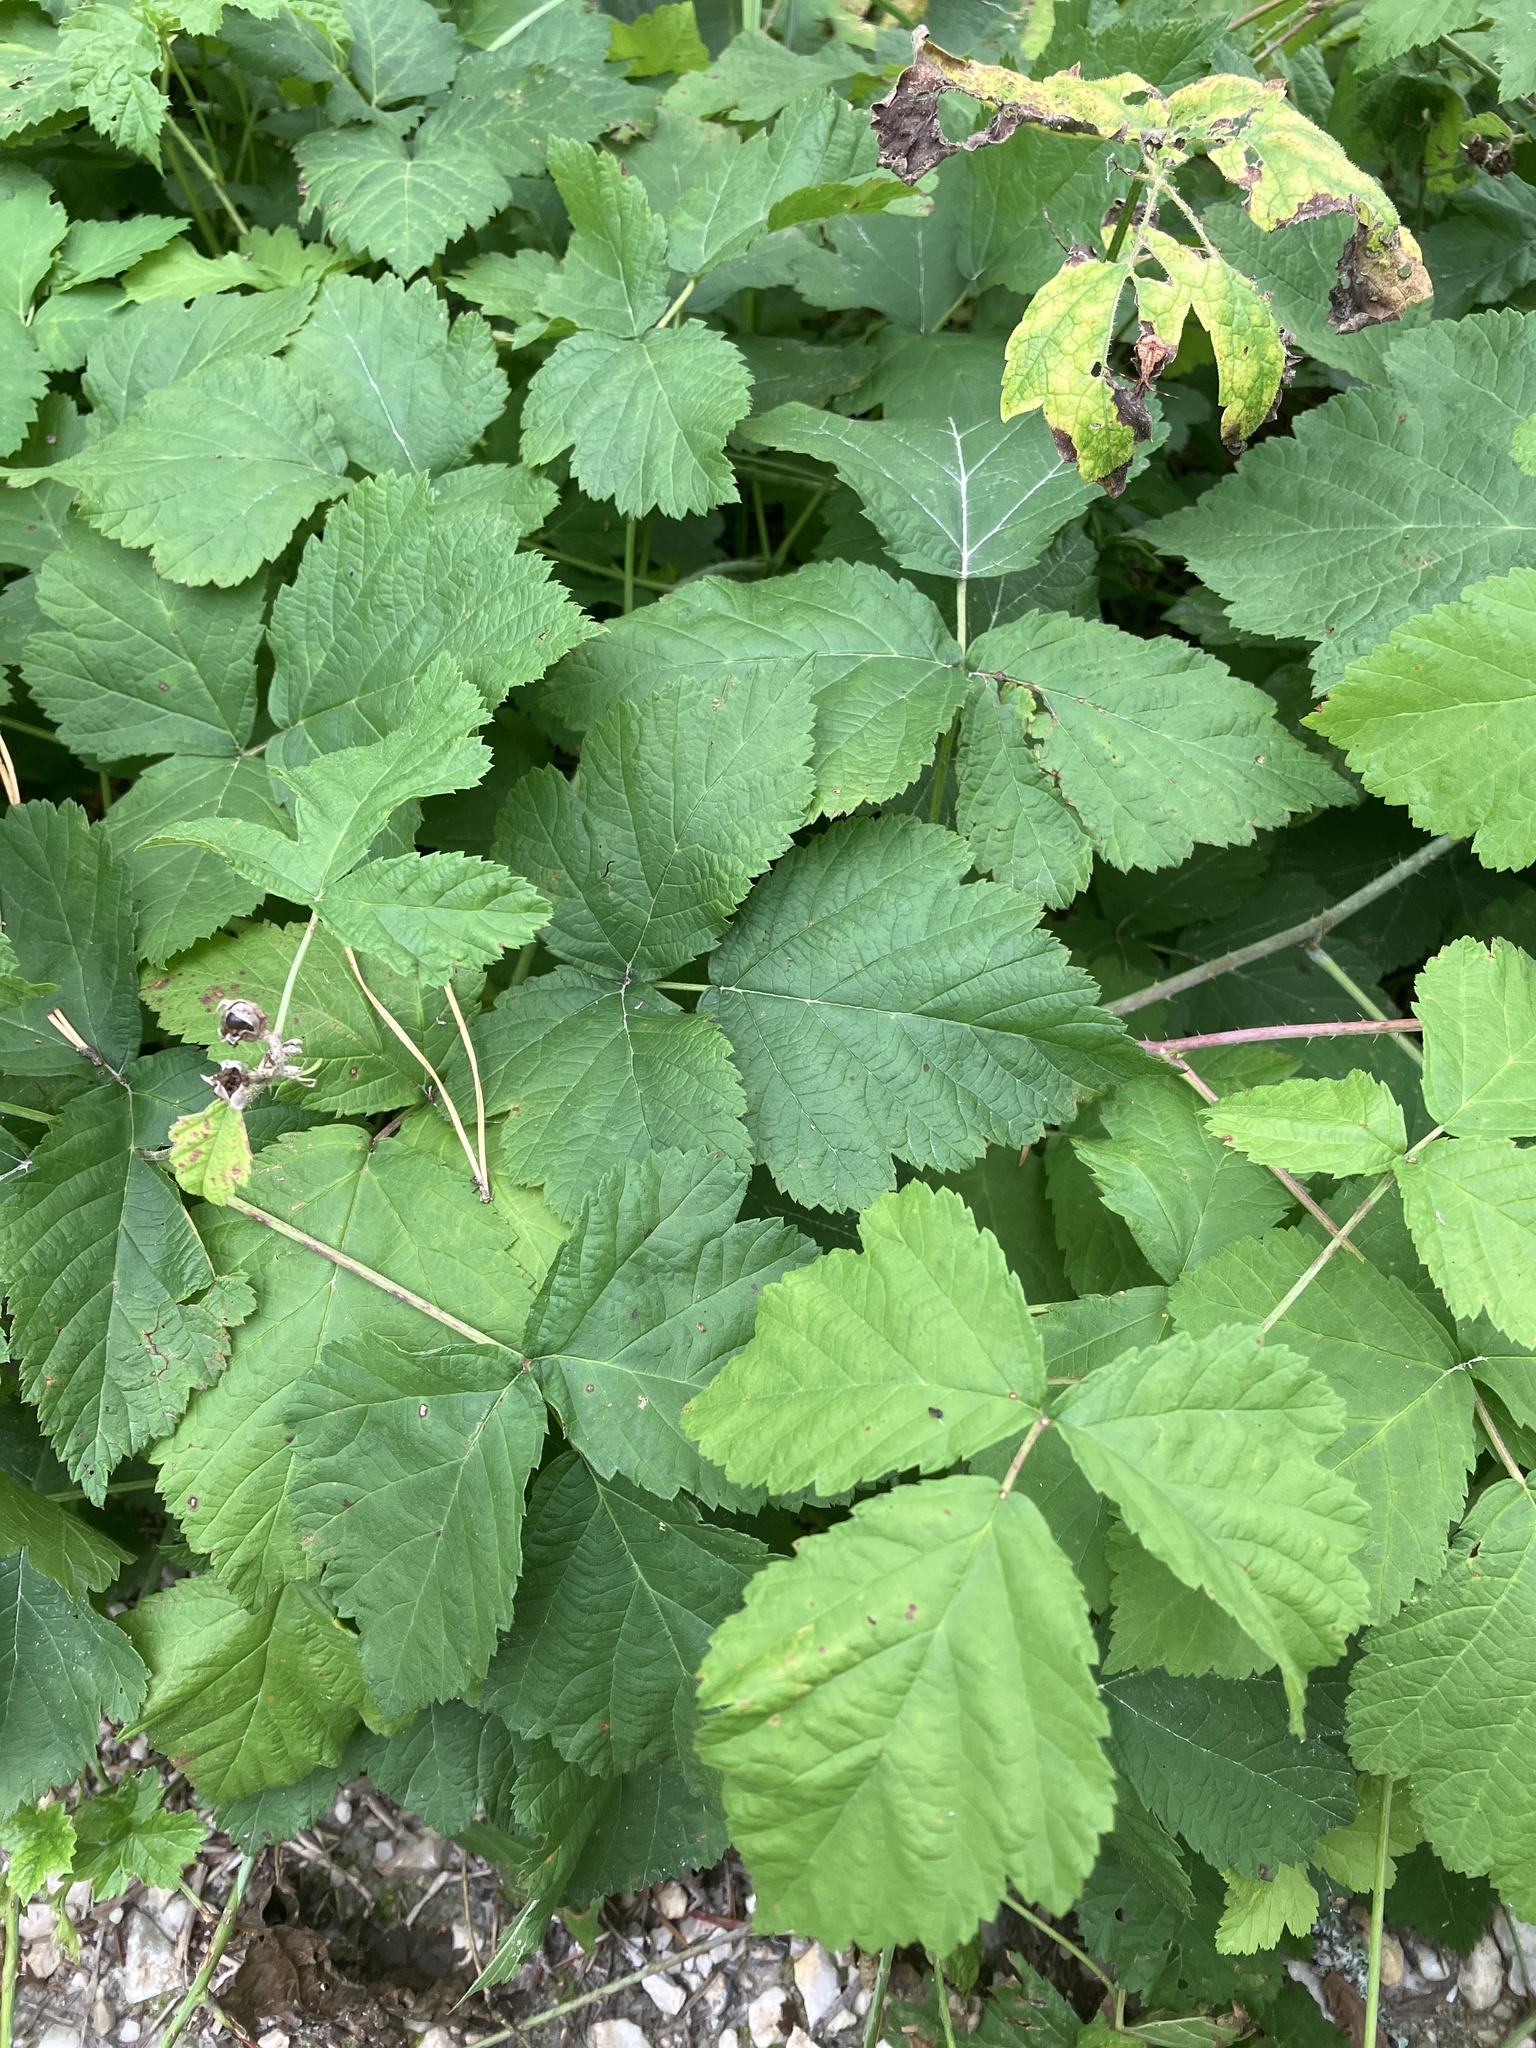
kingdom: Plantae
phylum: Tracheophyta
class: Magnoliopsida
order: Rosales
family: Rosaceae
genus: Rubus
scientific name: Rubus caesius
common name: Dewberry
